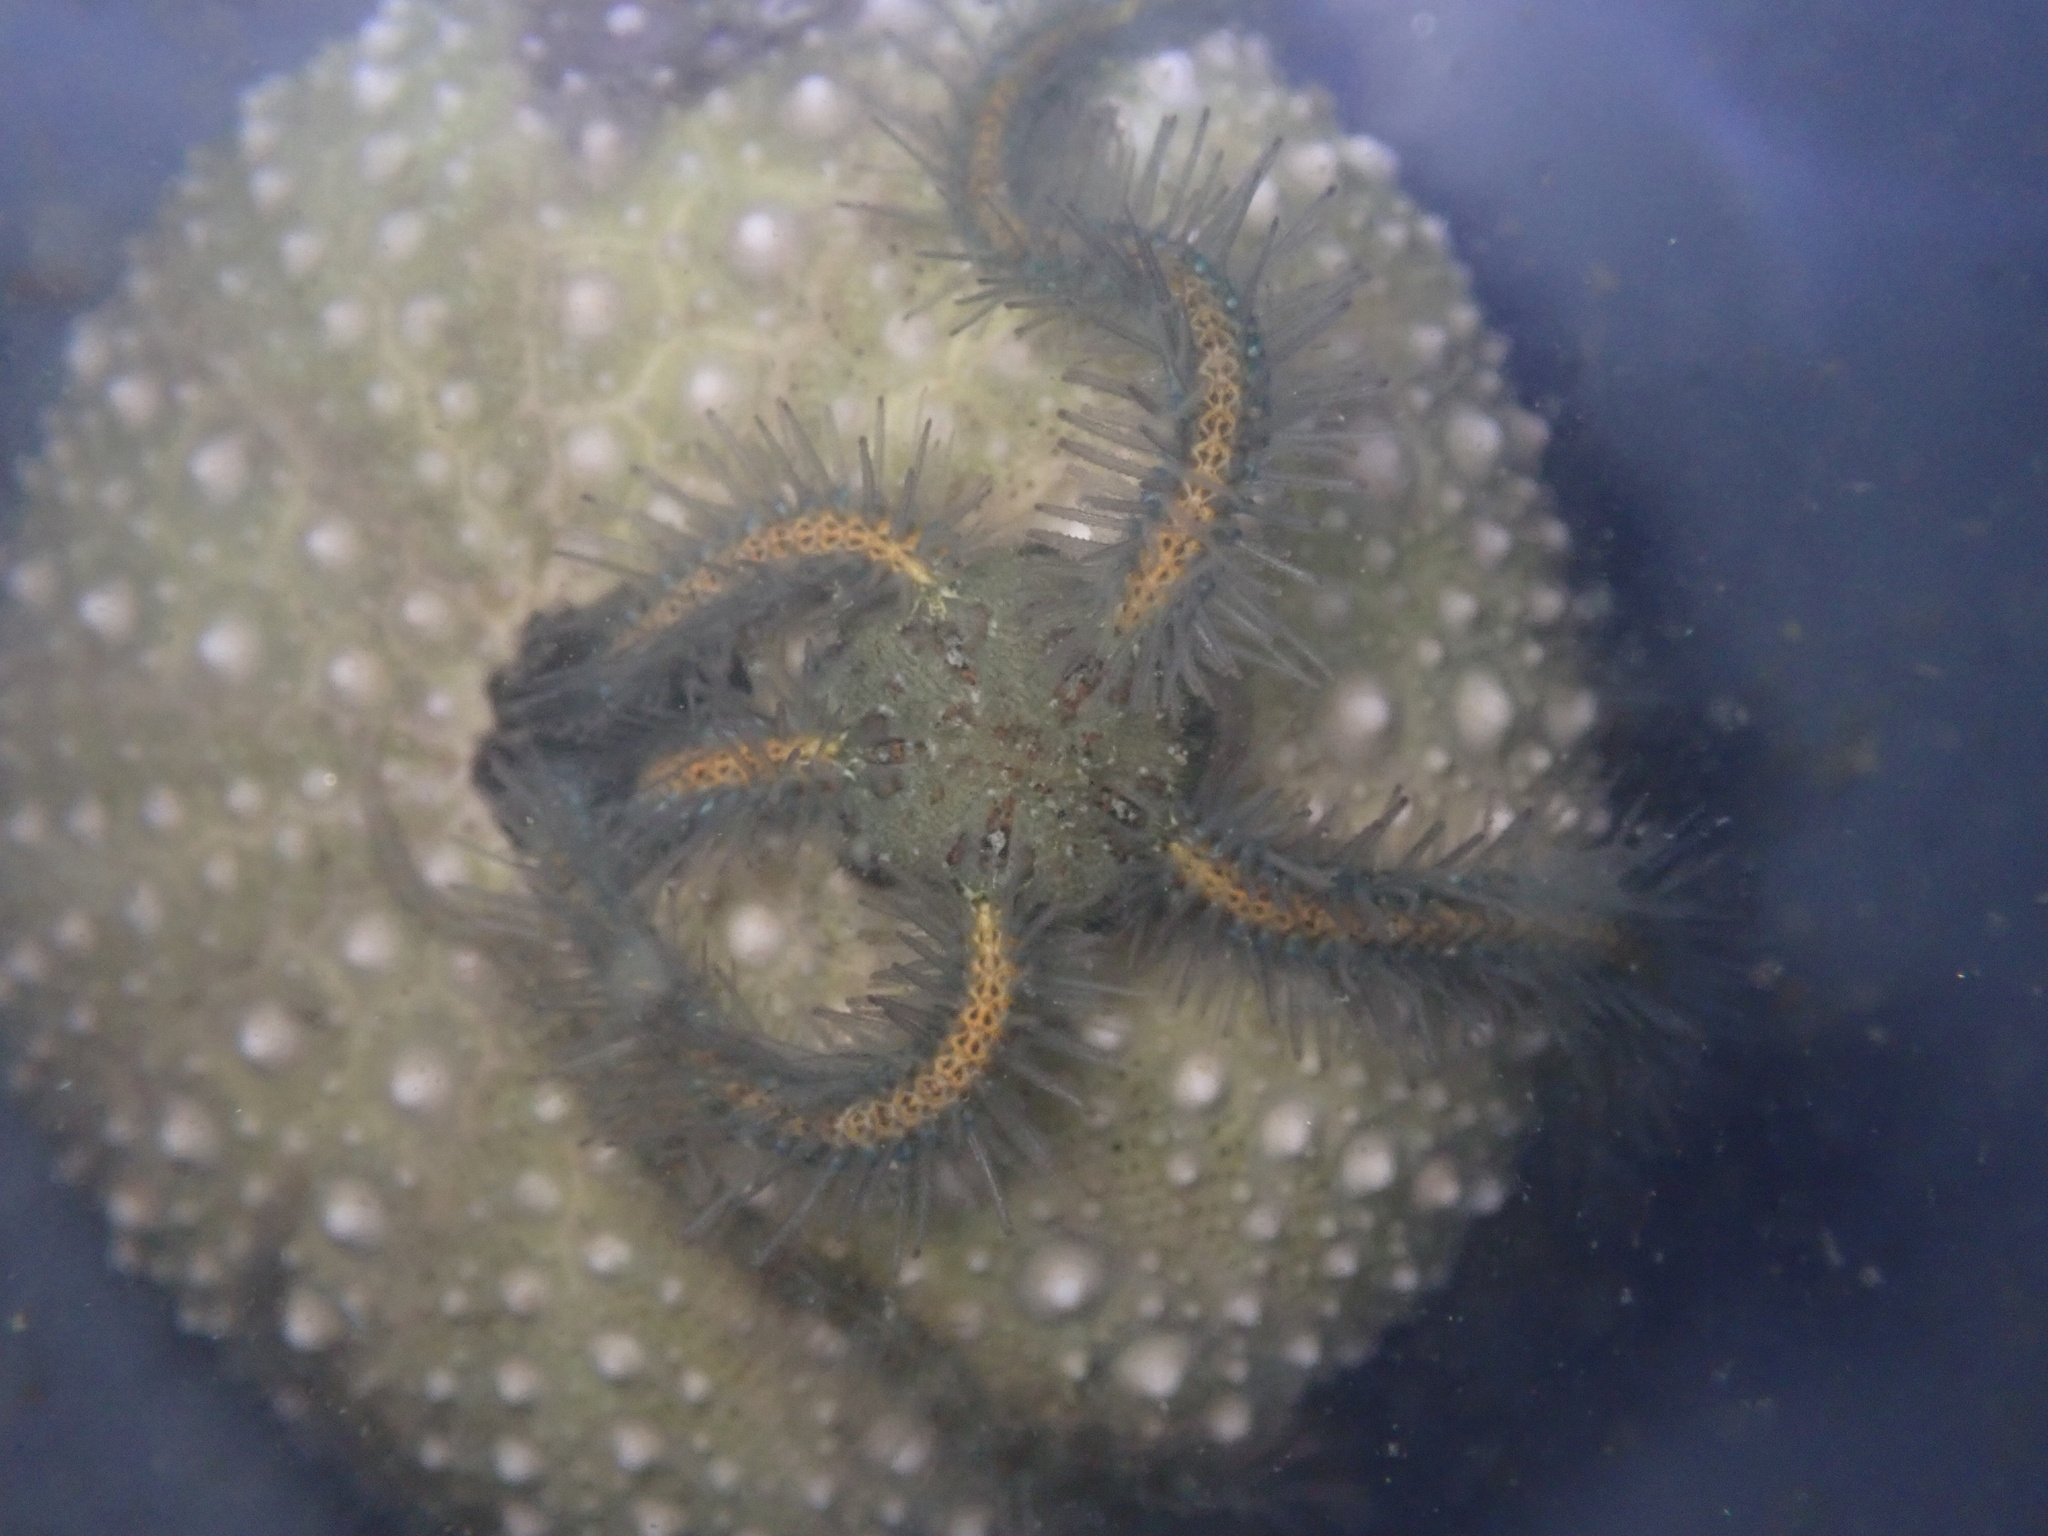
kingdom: Animalia
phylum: Echinodermata
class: Ophiuroidea
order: Amphilepidida
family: Ophiotrichidae
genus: Ophiothrix
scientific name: Ophiothrix spiculata
